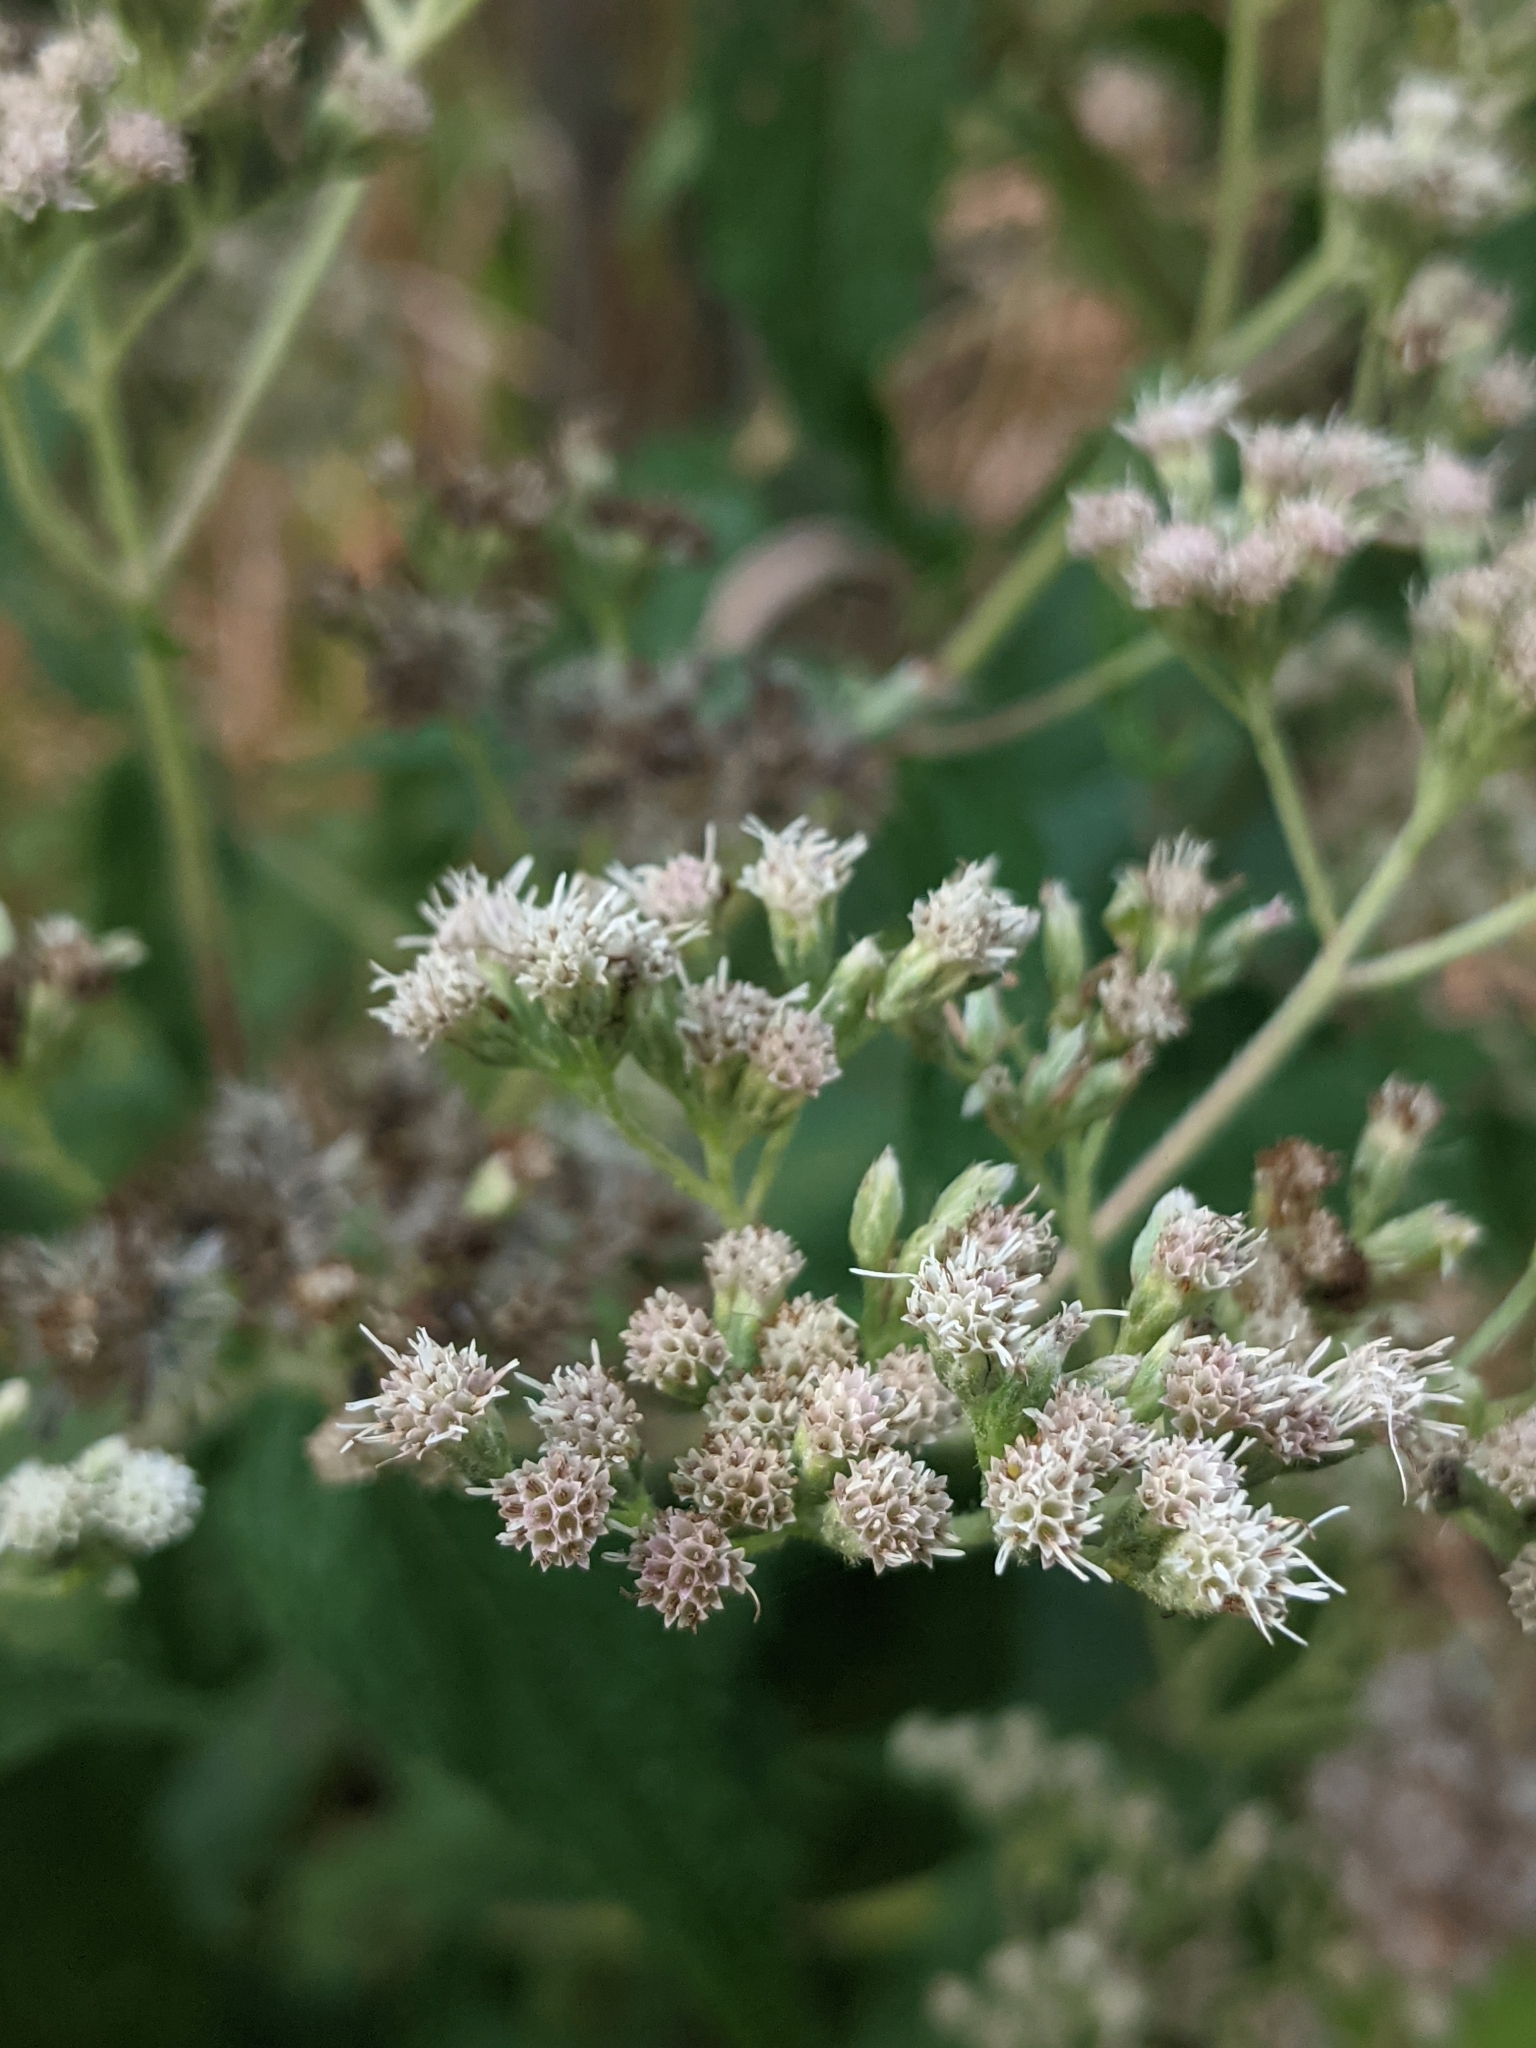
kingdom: Plantae
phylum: Tracheophyta
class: Magnoliopsida
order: Asterales
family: Asteraceae
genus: Eupatorium
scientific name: Eupatorium perfoliatum
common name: Boneset
